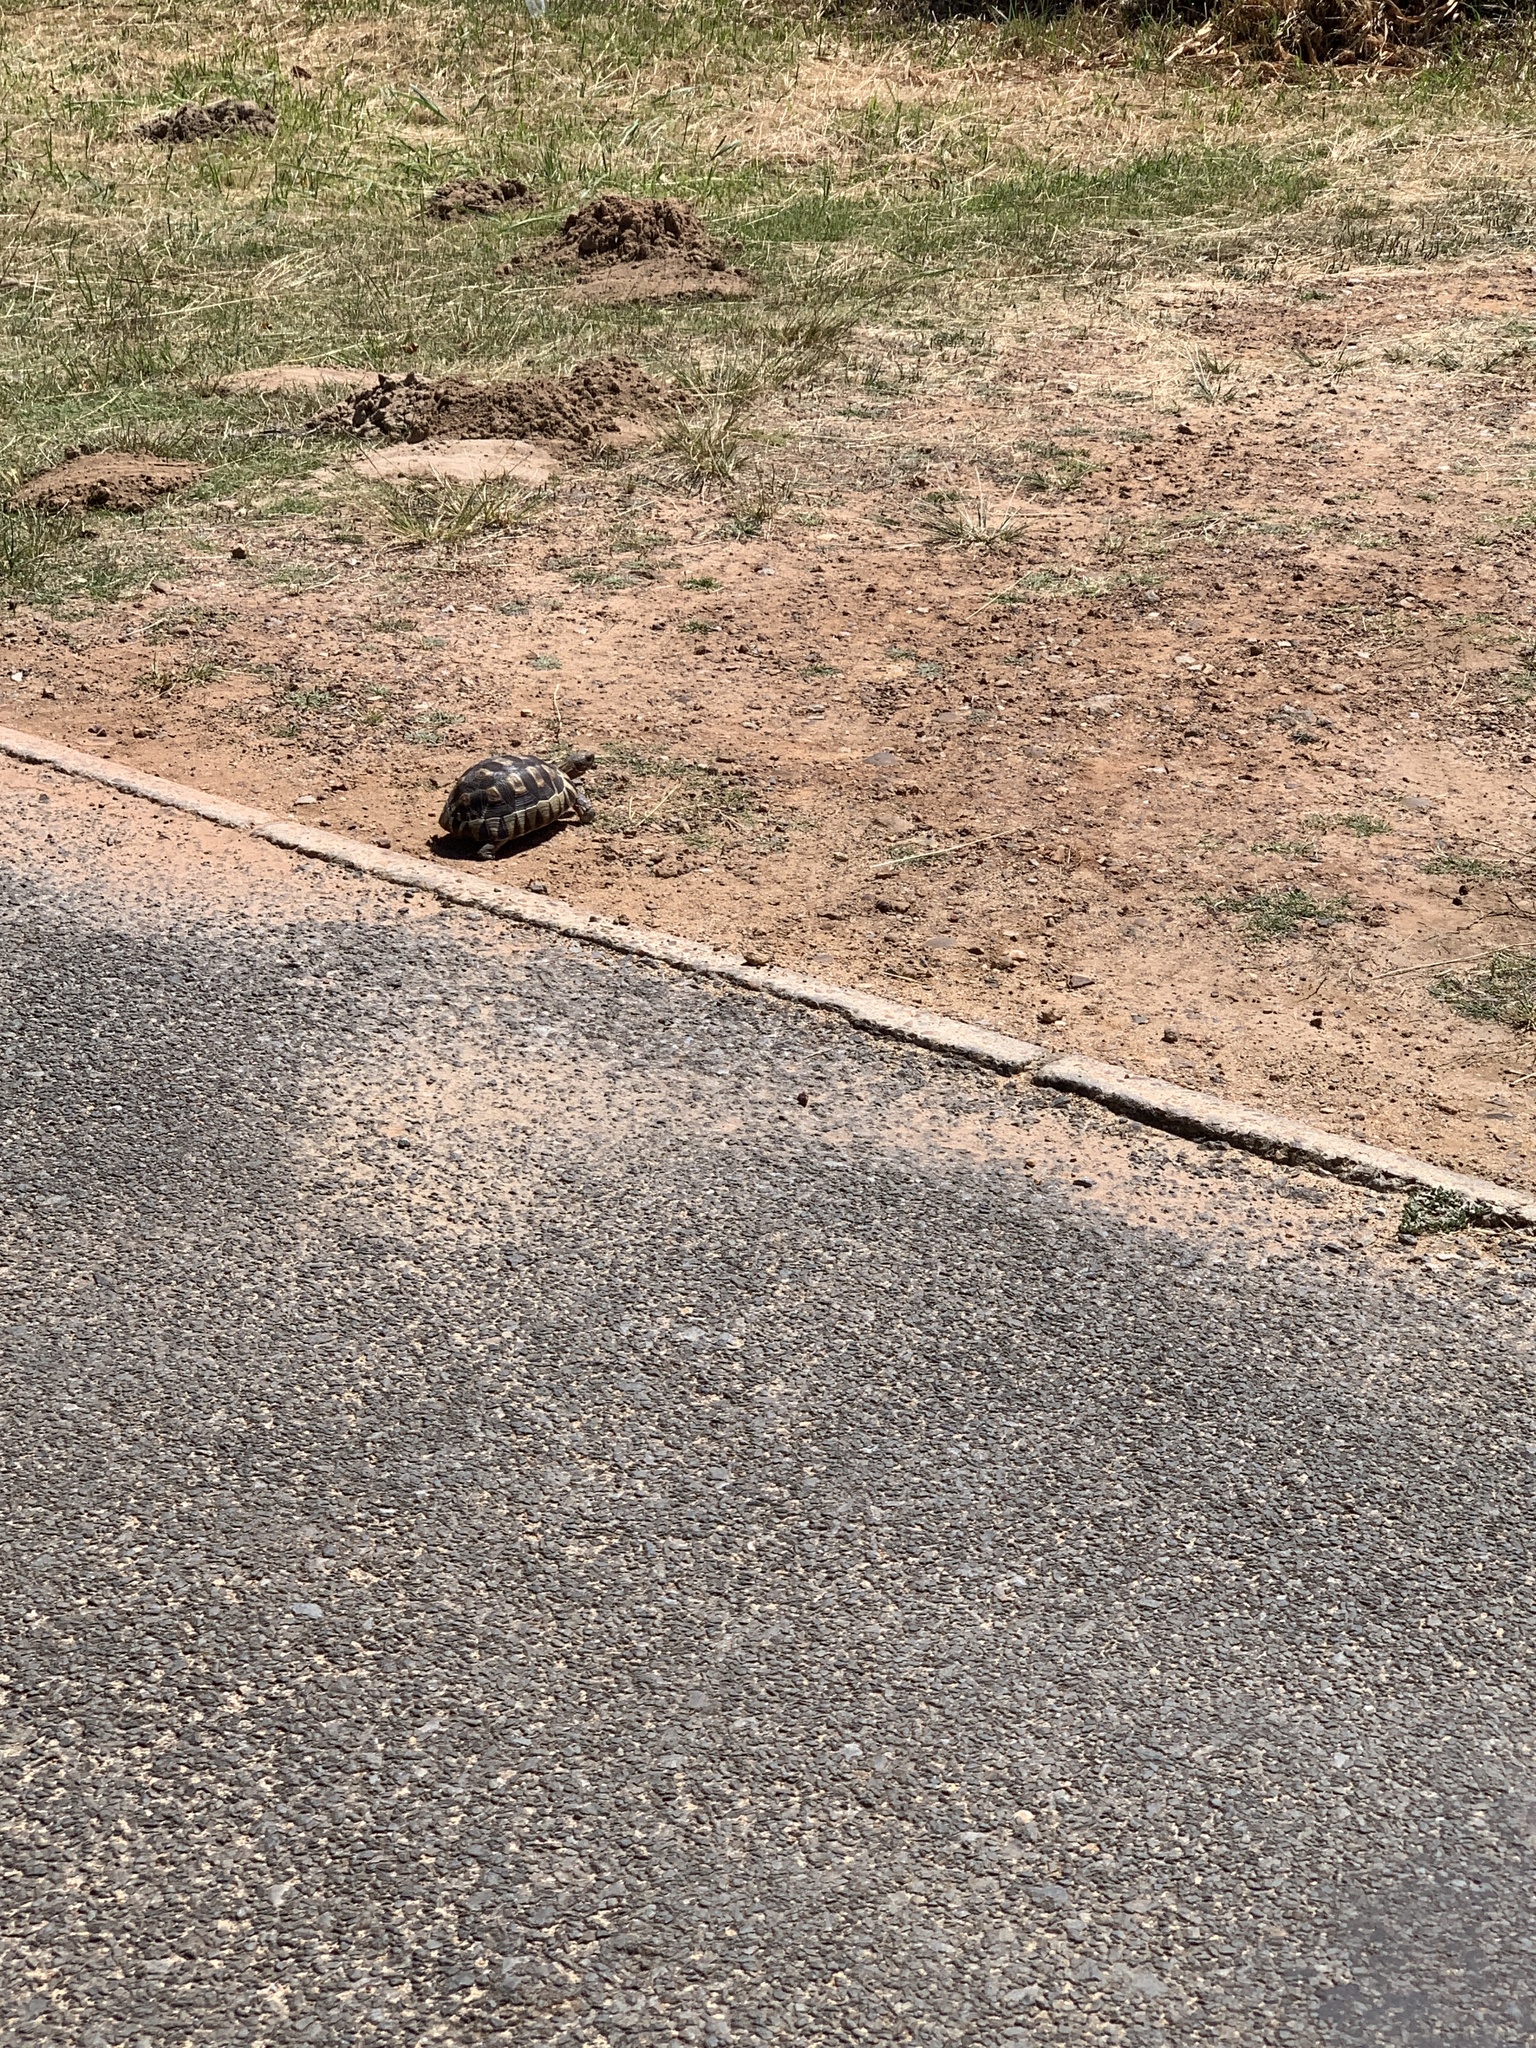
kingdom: Animalia
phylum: Chordata
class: Testudines
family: Testudinidae
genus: Chersina
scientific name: Chersina angulata
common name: South african bowsprit tortoise
